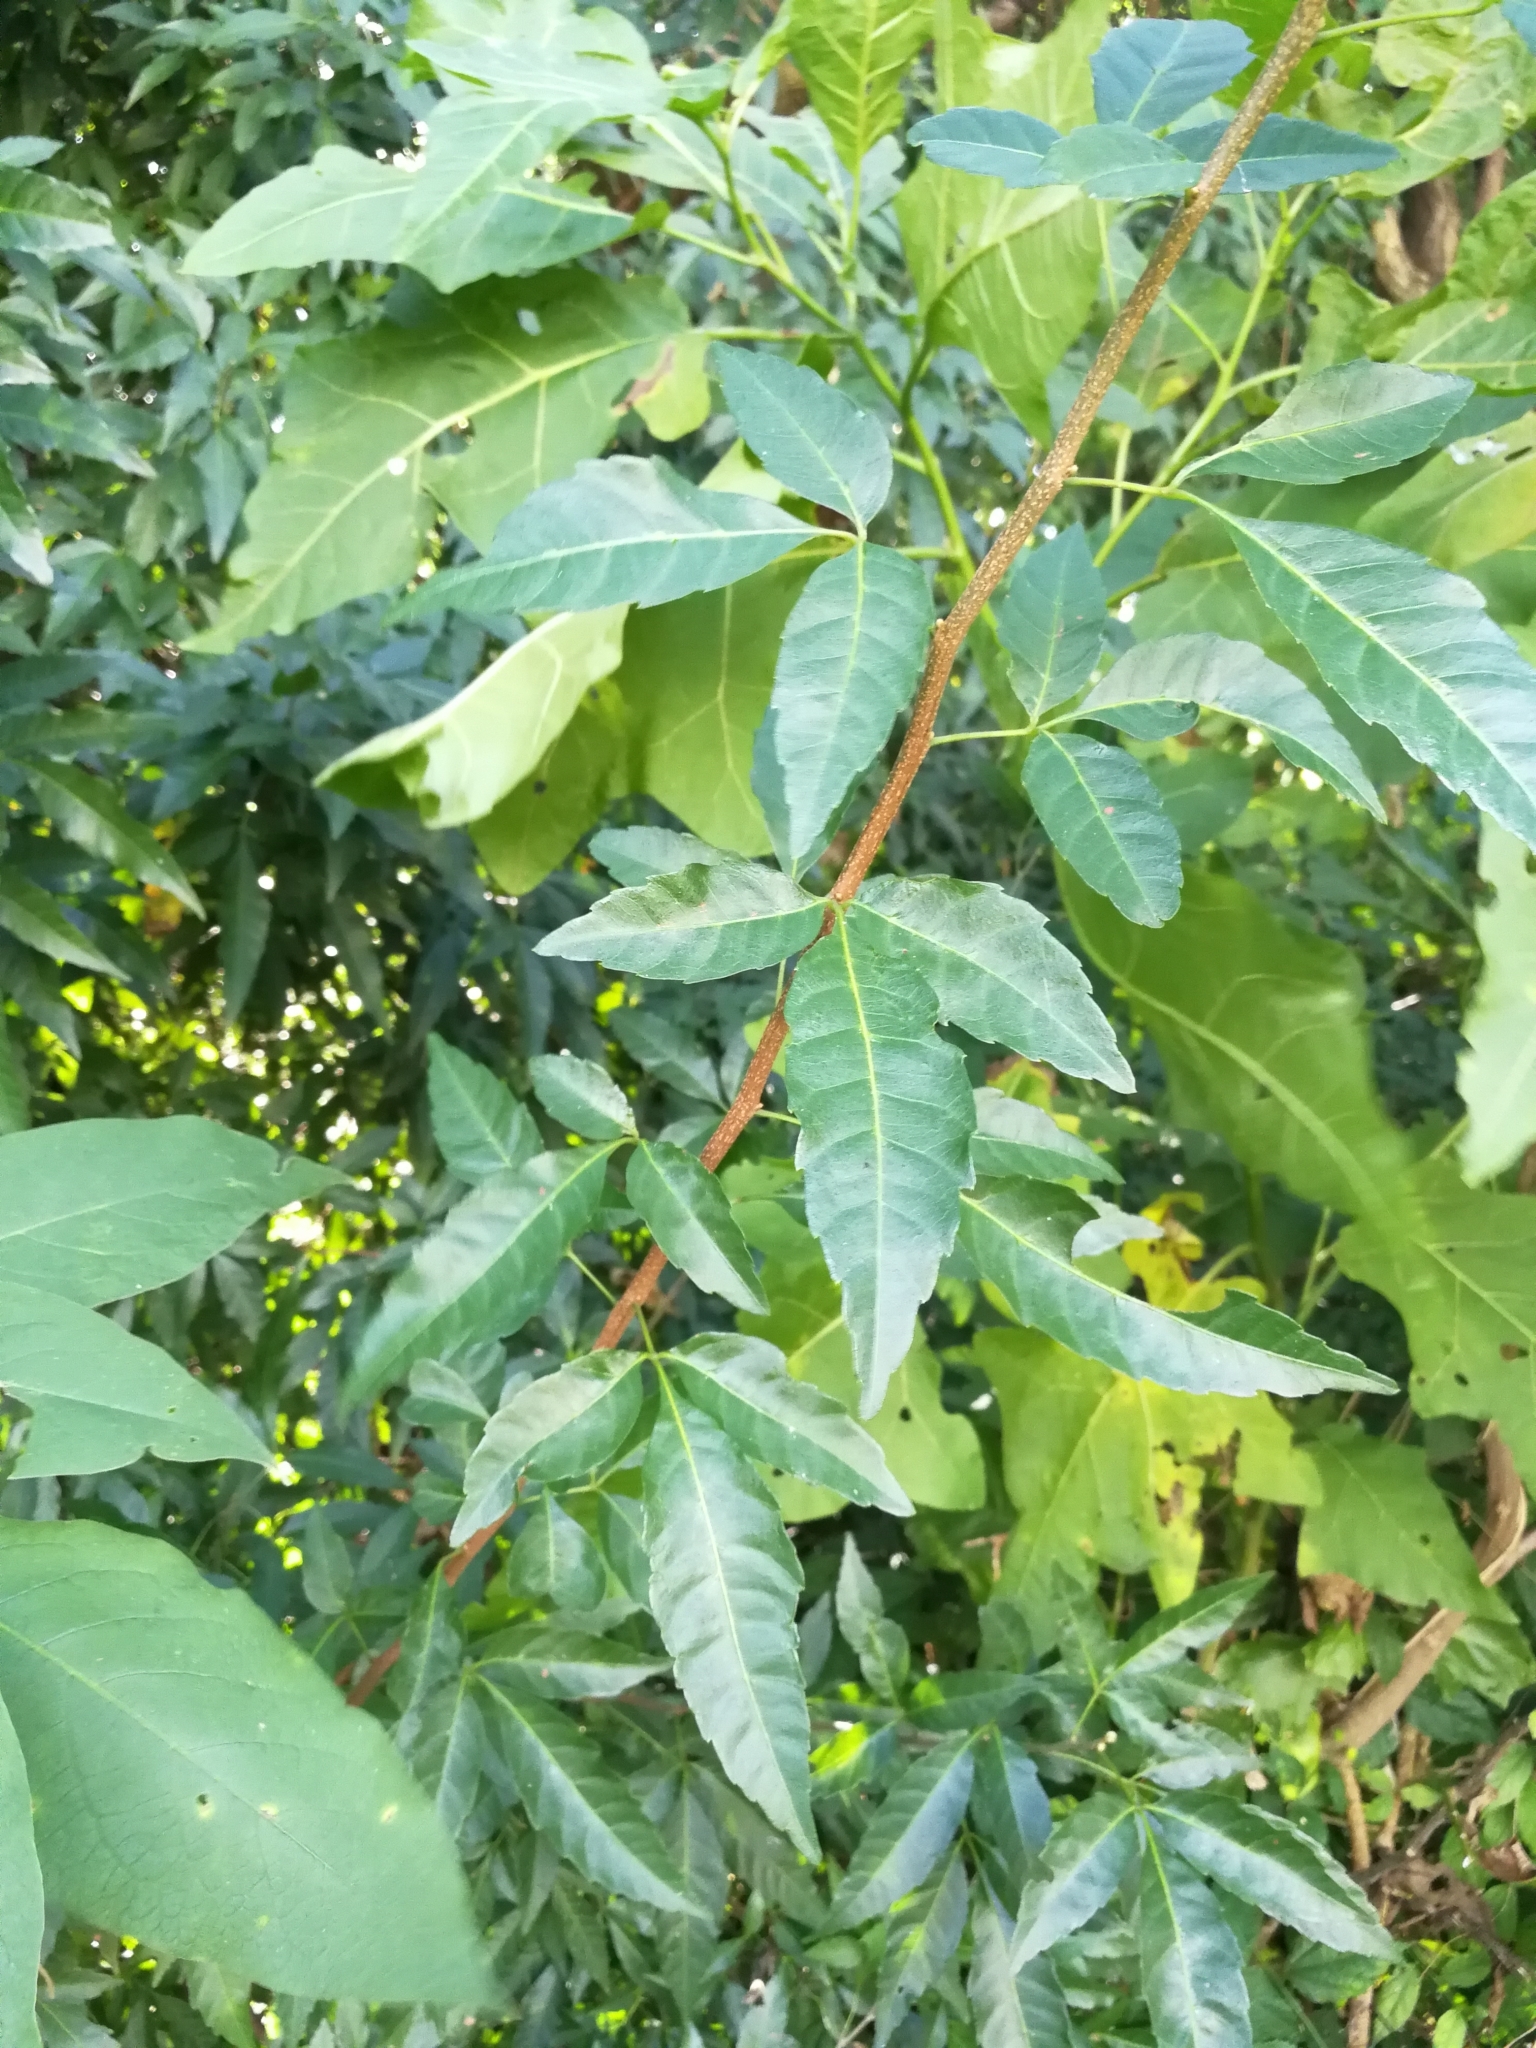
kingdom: Plantae
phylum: Tracheophyta
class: Magnoliopsida
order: Sapindales
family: Sapindaceae
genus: Allophylus
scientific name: Allophylus edulis
